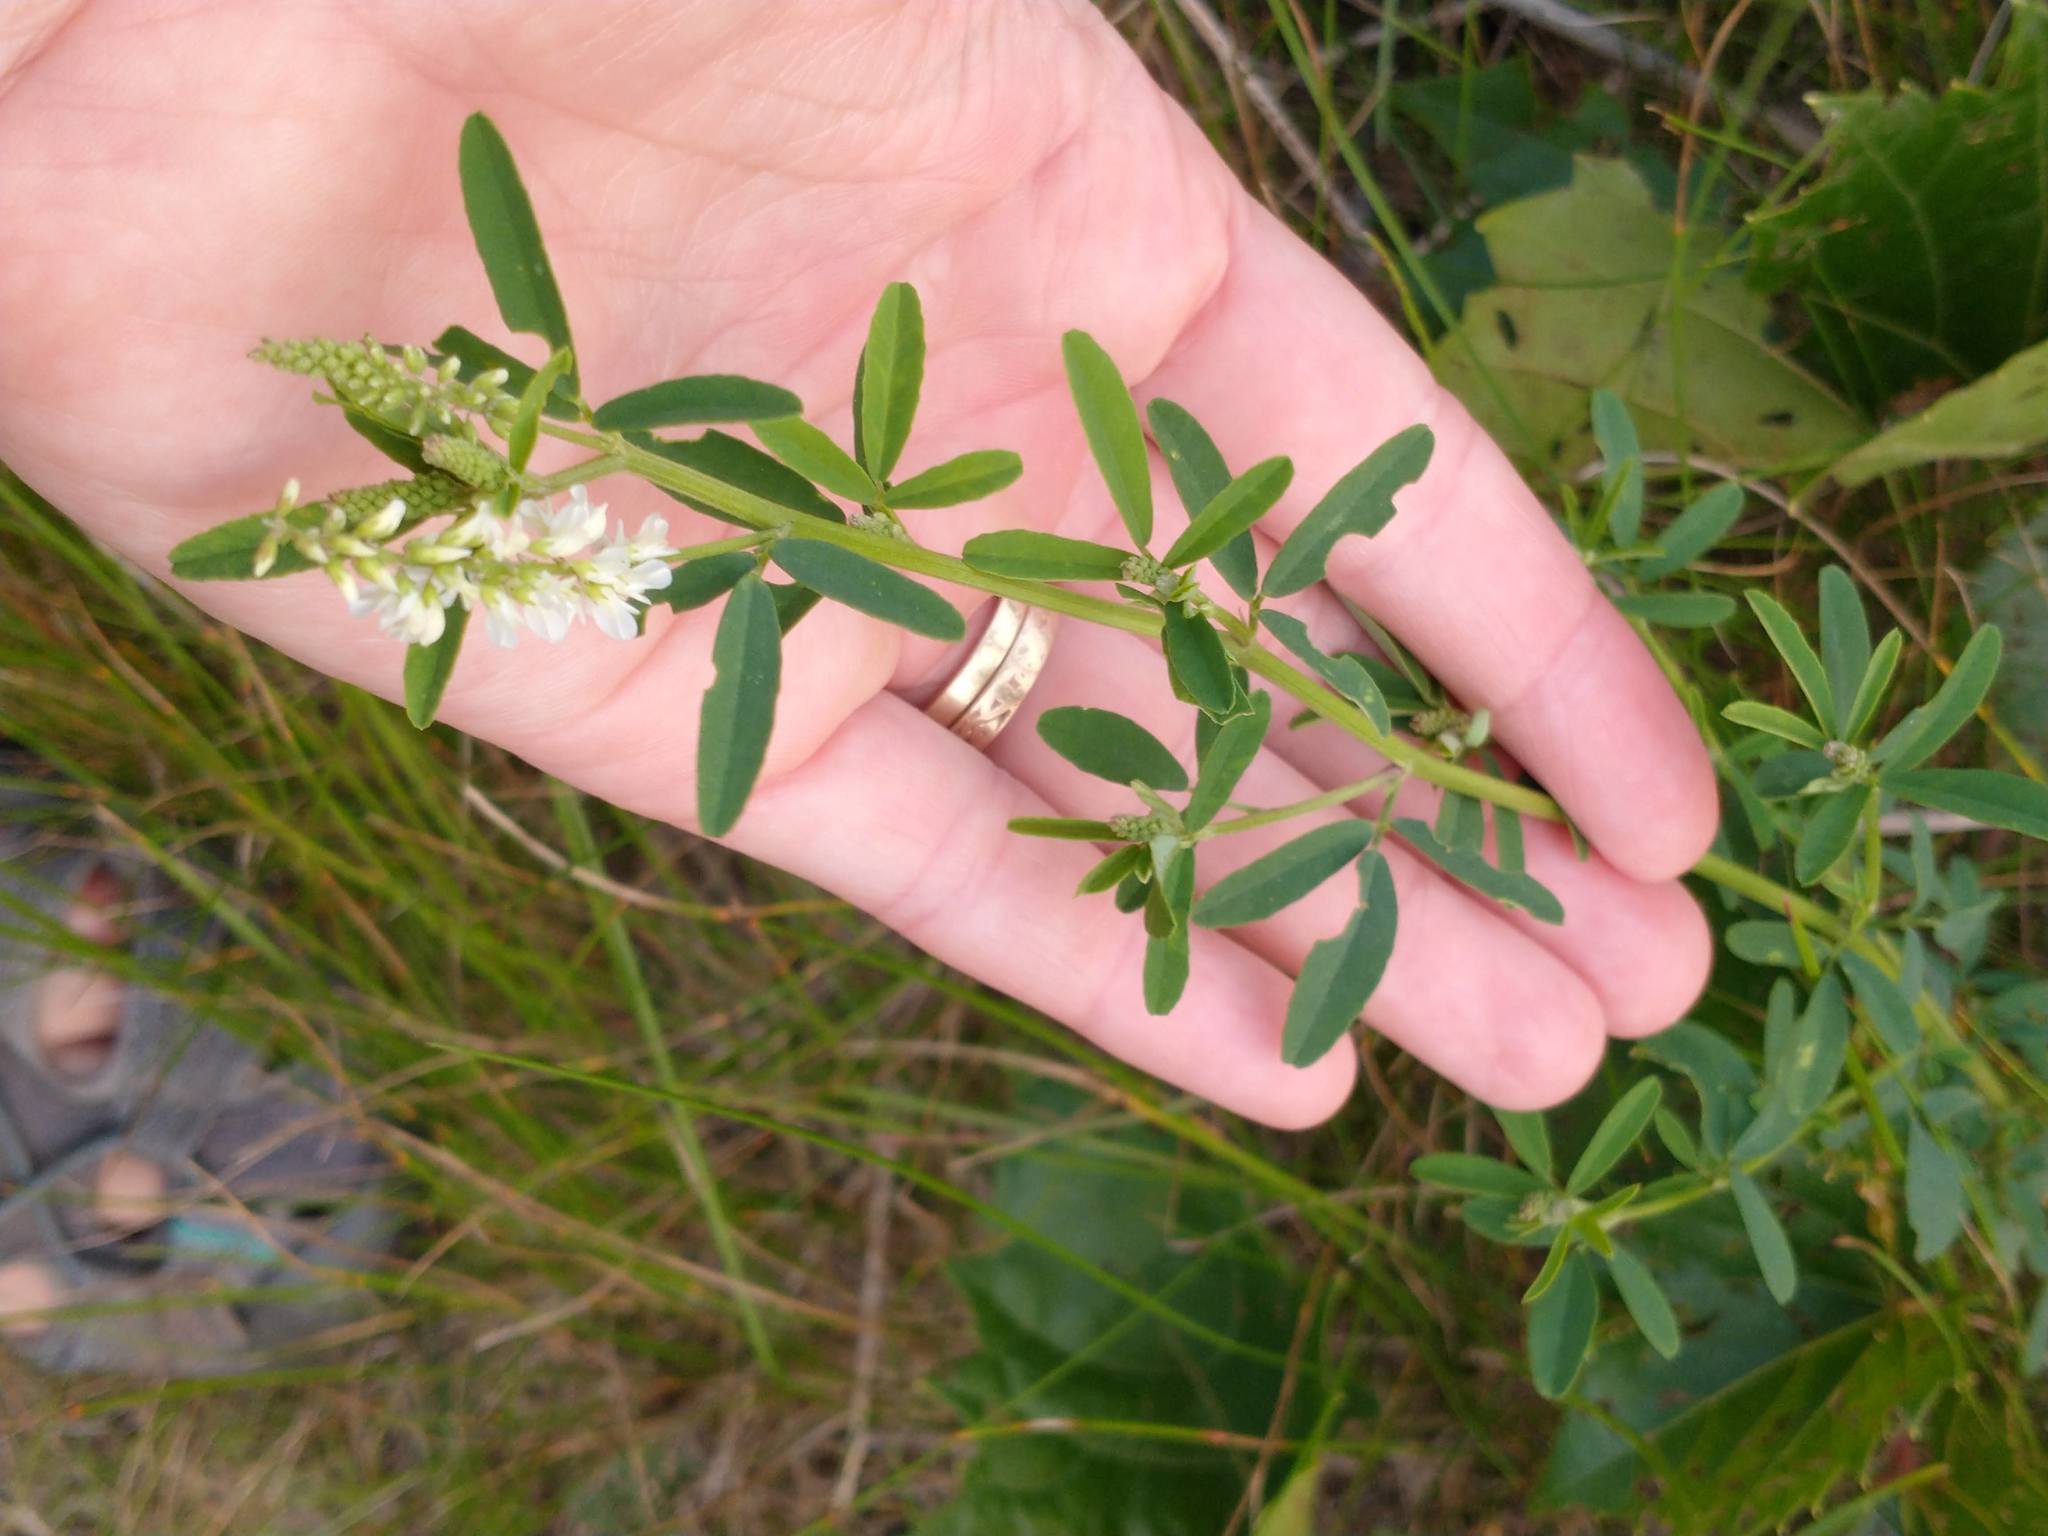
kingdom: Plantae
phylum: Tracheophyta
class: Magnoliopsida
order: Fabales
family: Fabaceae
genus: Melilotus
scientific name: Melilotus albus
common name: White melilot
